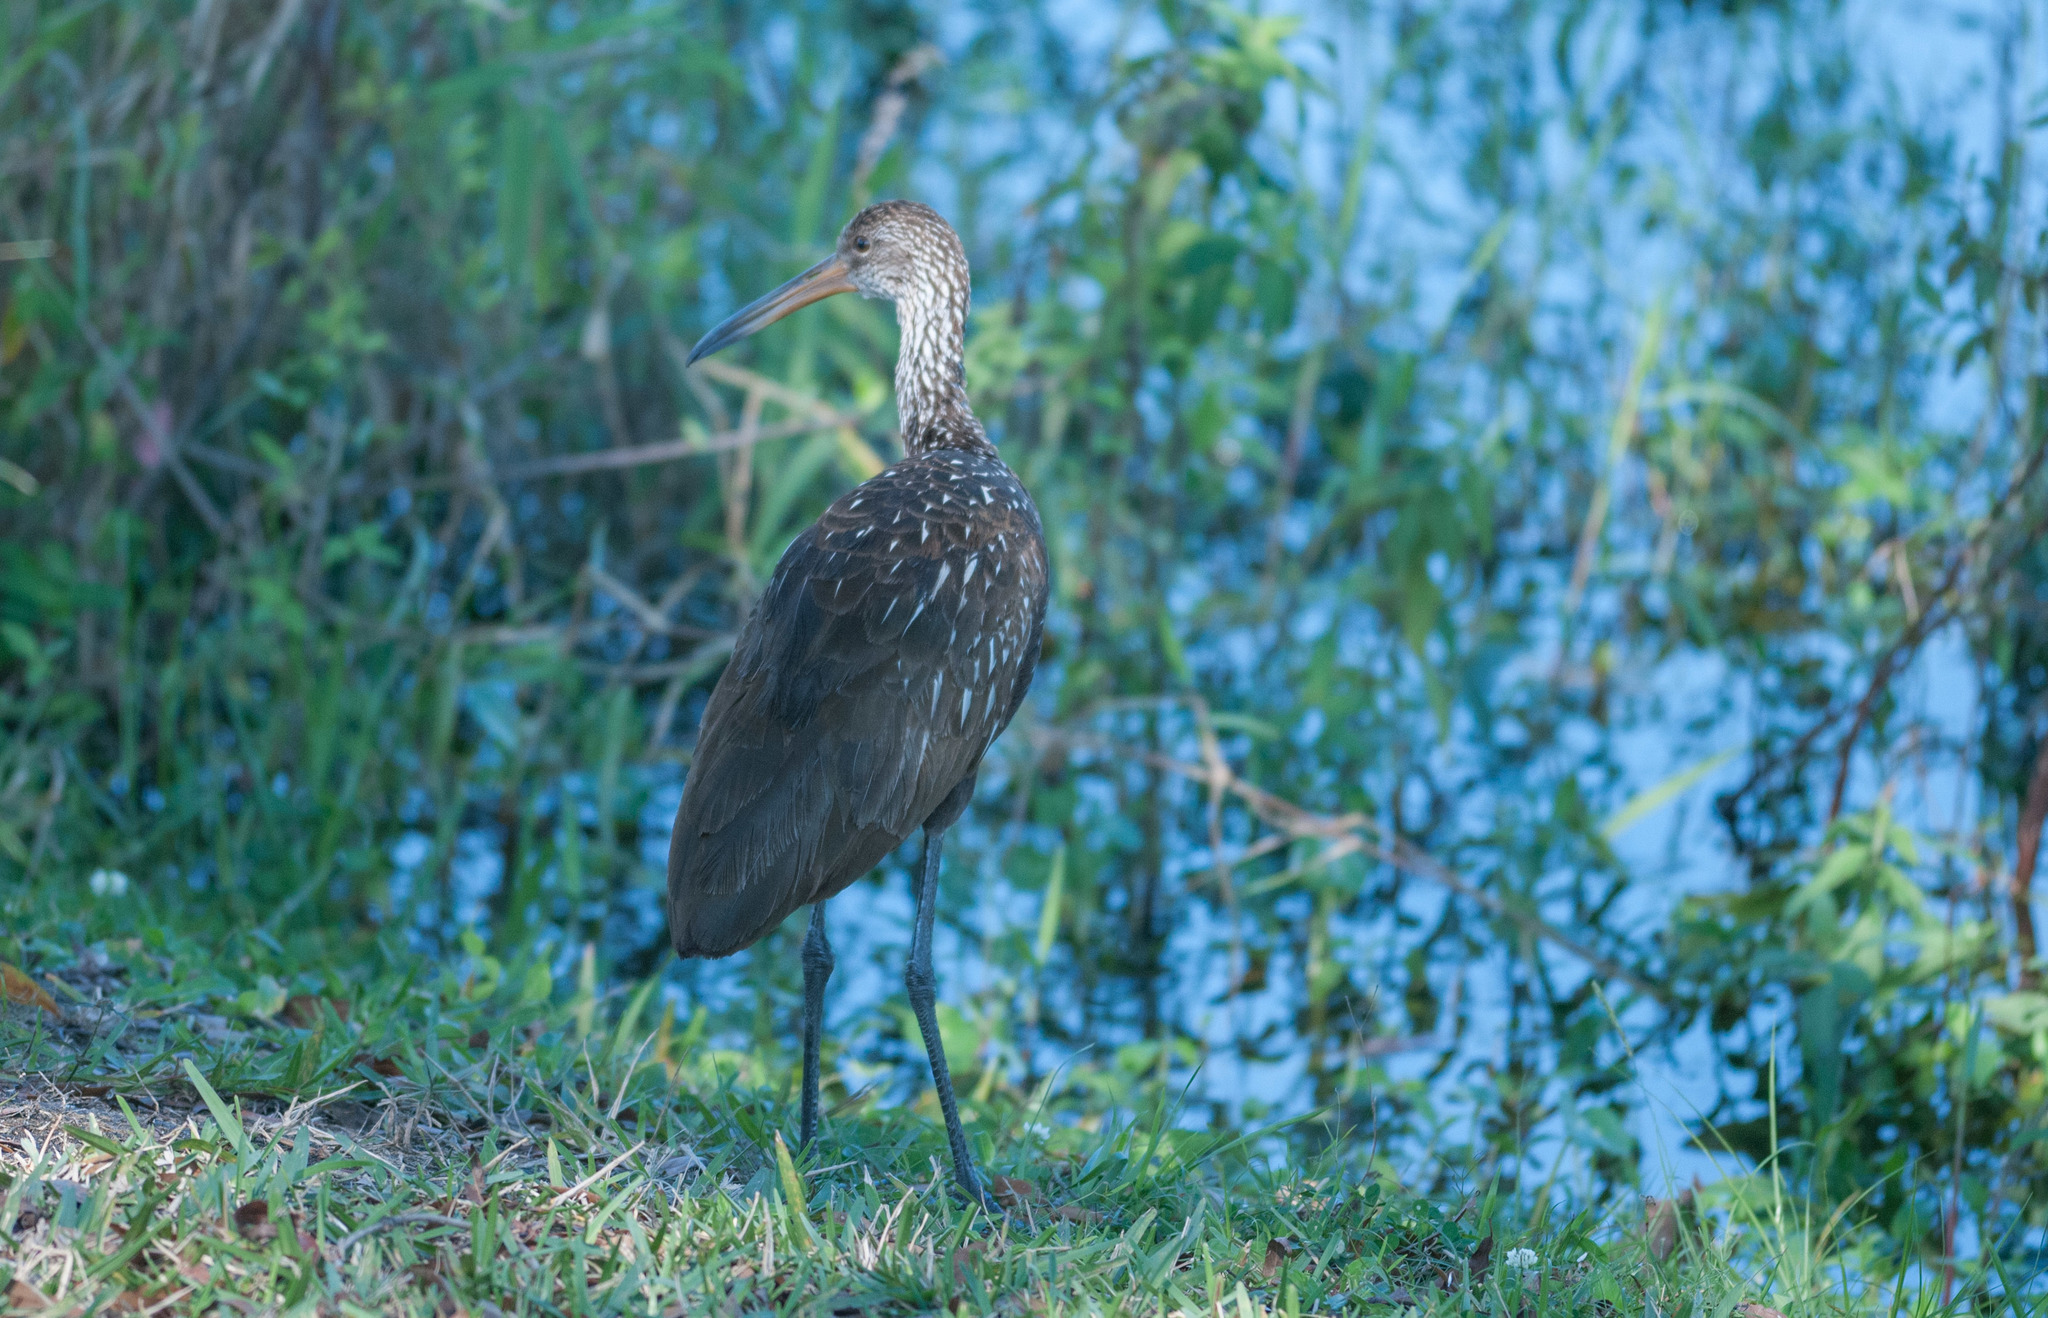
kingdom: Animalia
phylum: Chordata
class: Aves
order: Gruiformes
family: Aramidae
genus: Aramus
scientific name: Aramus guarauna
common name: Limpkin
